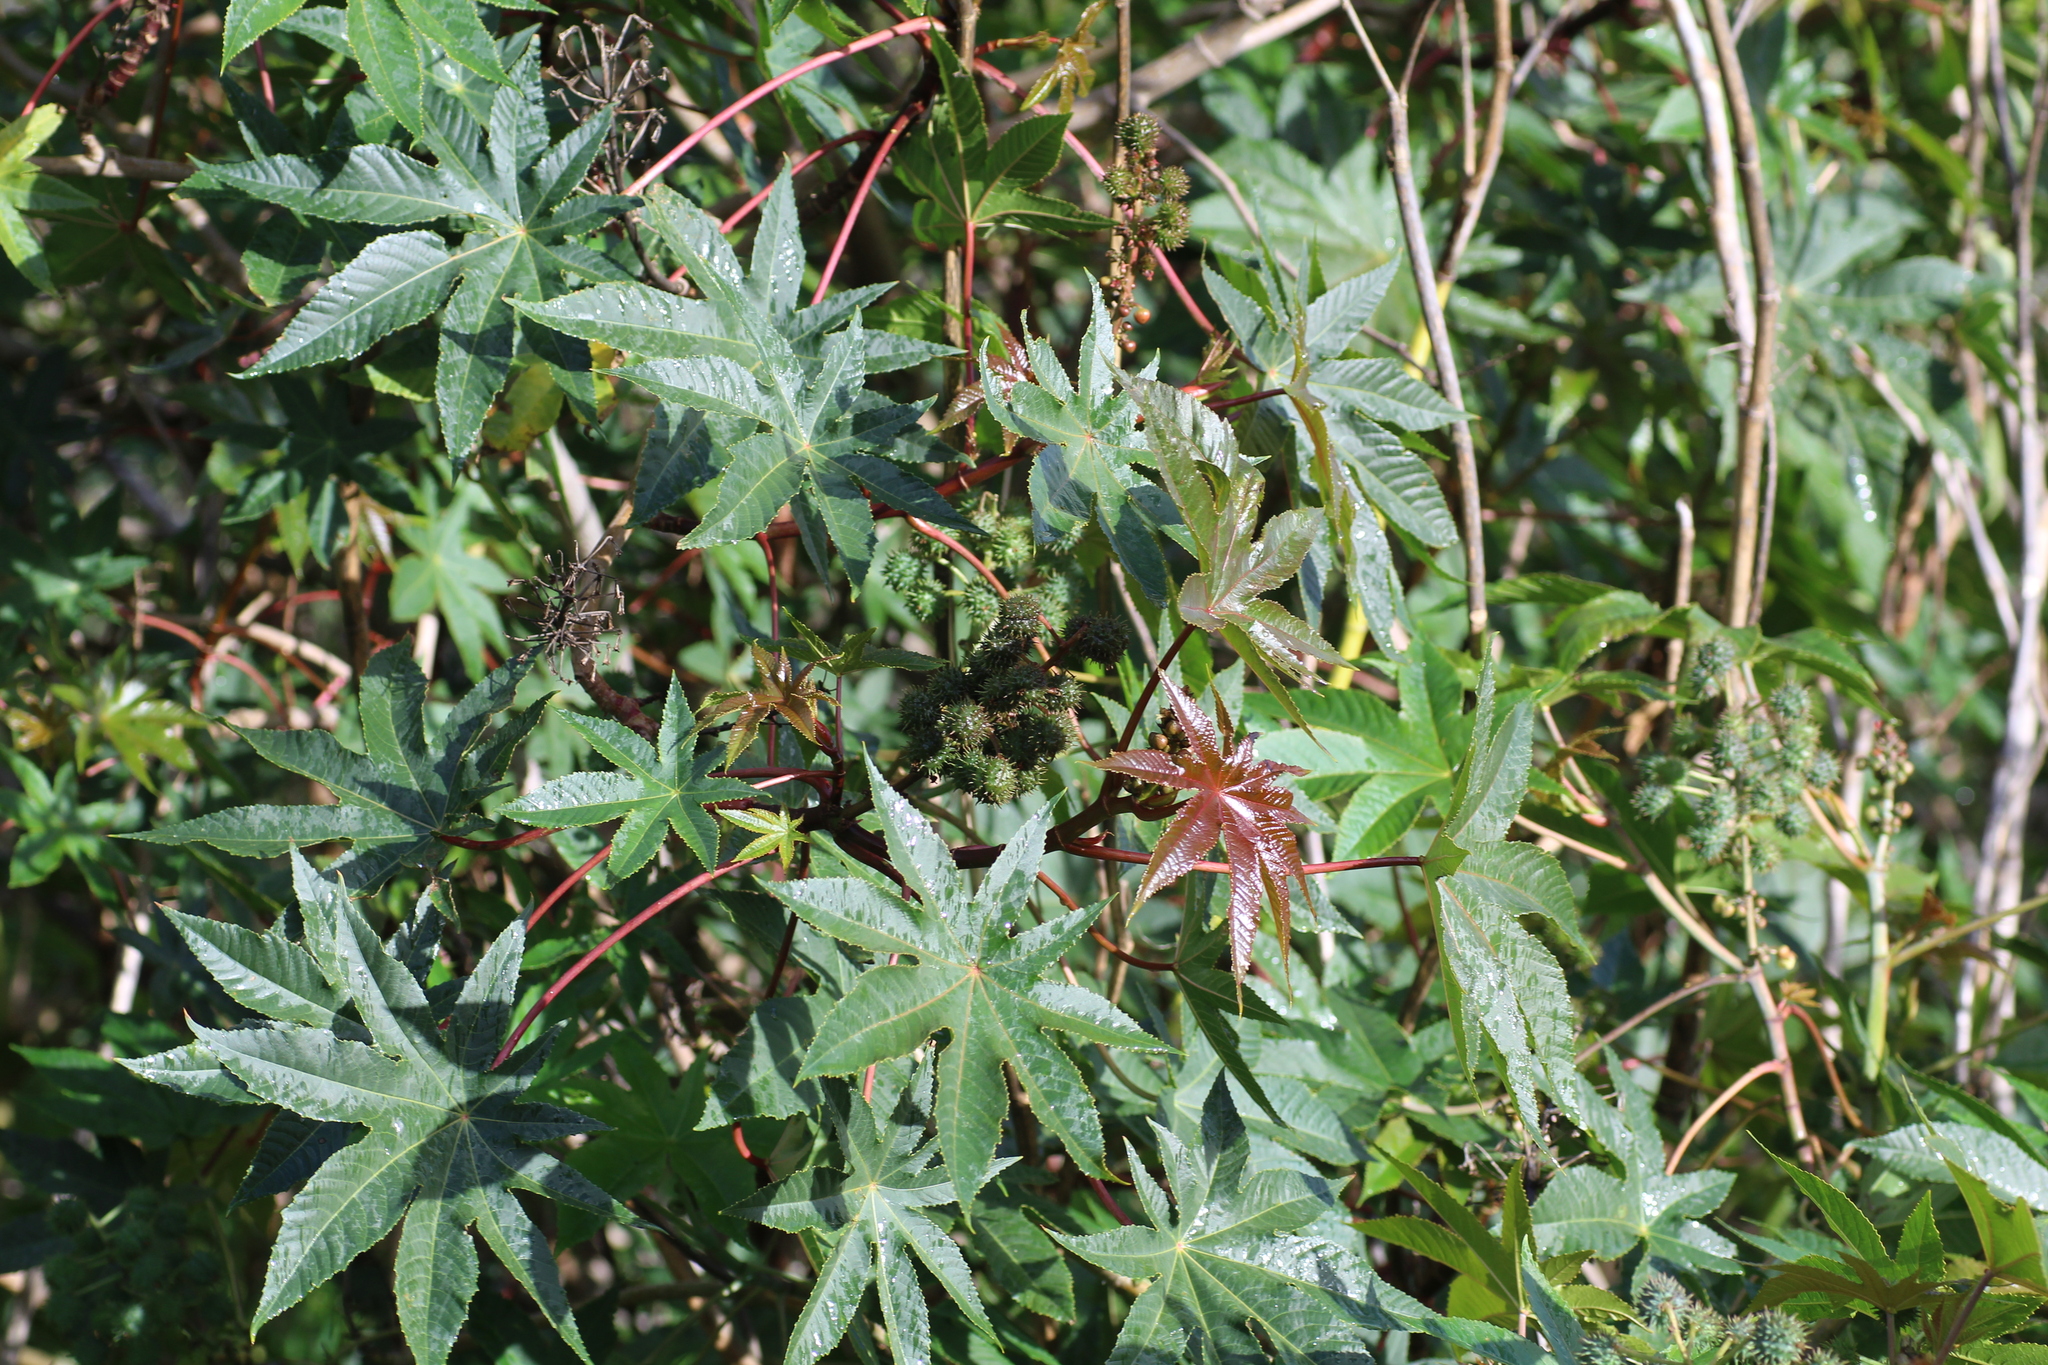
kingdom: Plantae
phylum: Tracheophyta
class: Magnoliopsida
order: Malpighiales
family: Euphorbiaceae
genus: Ricinus
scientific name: Ricinus communis
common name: Castor-oil-plant
